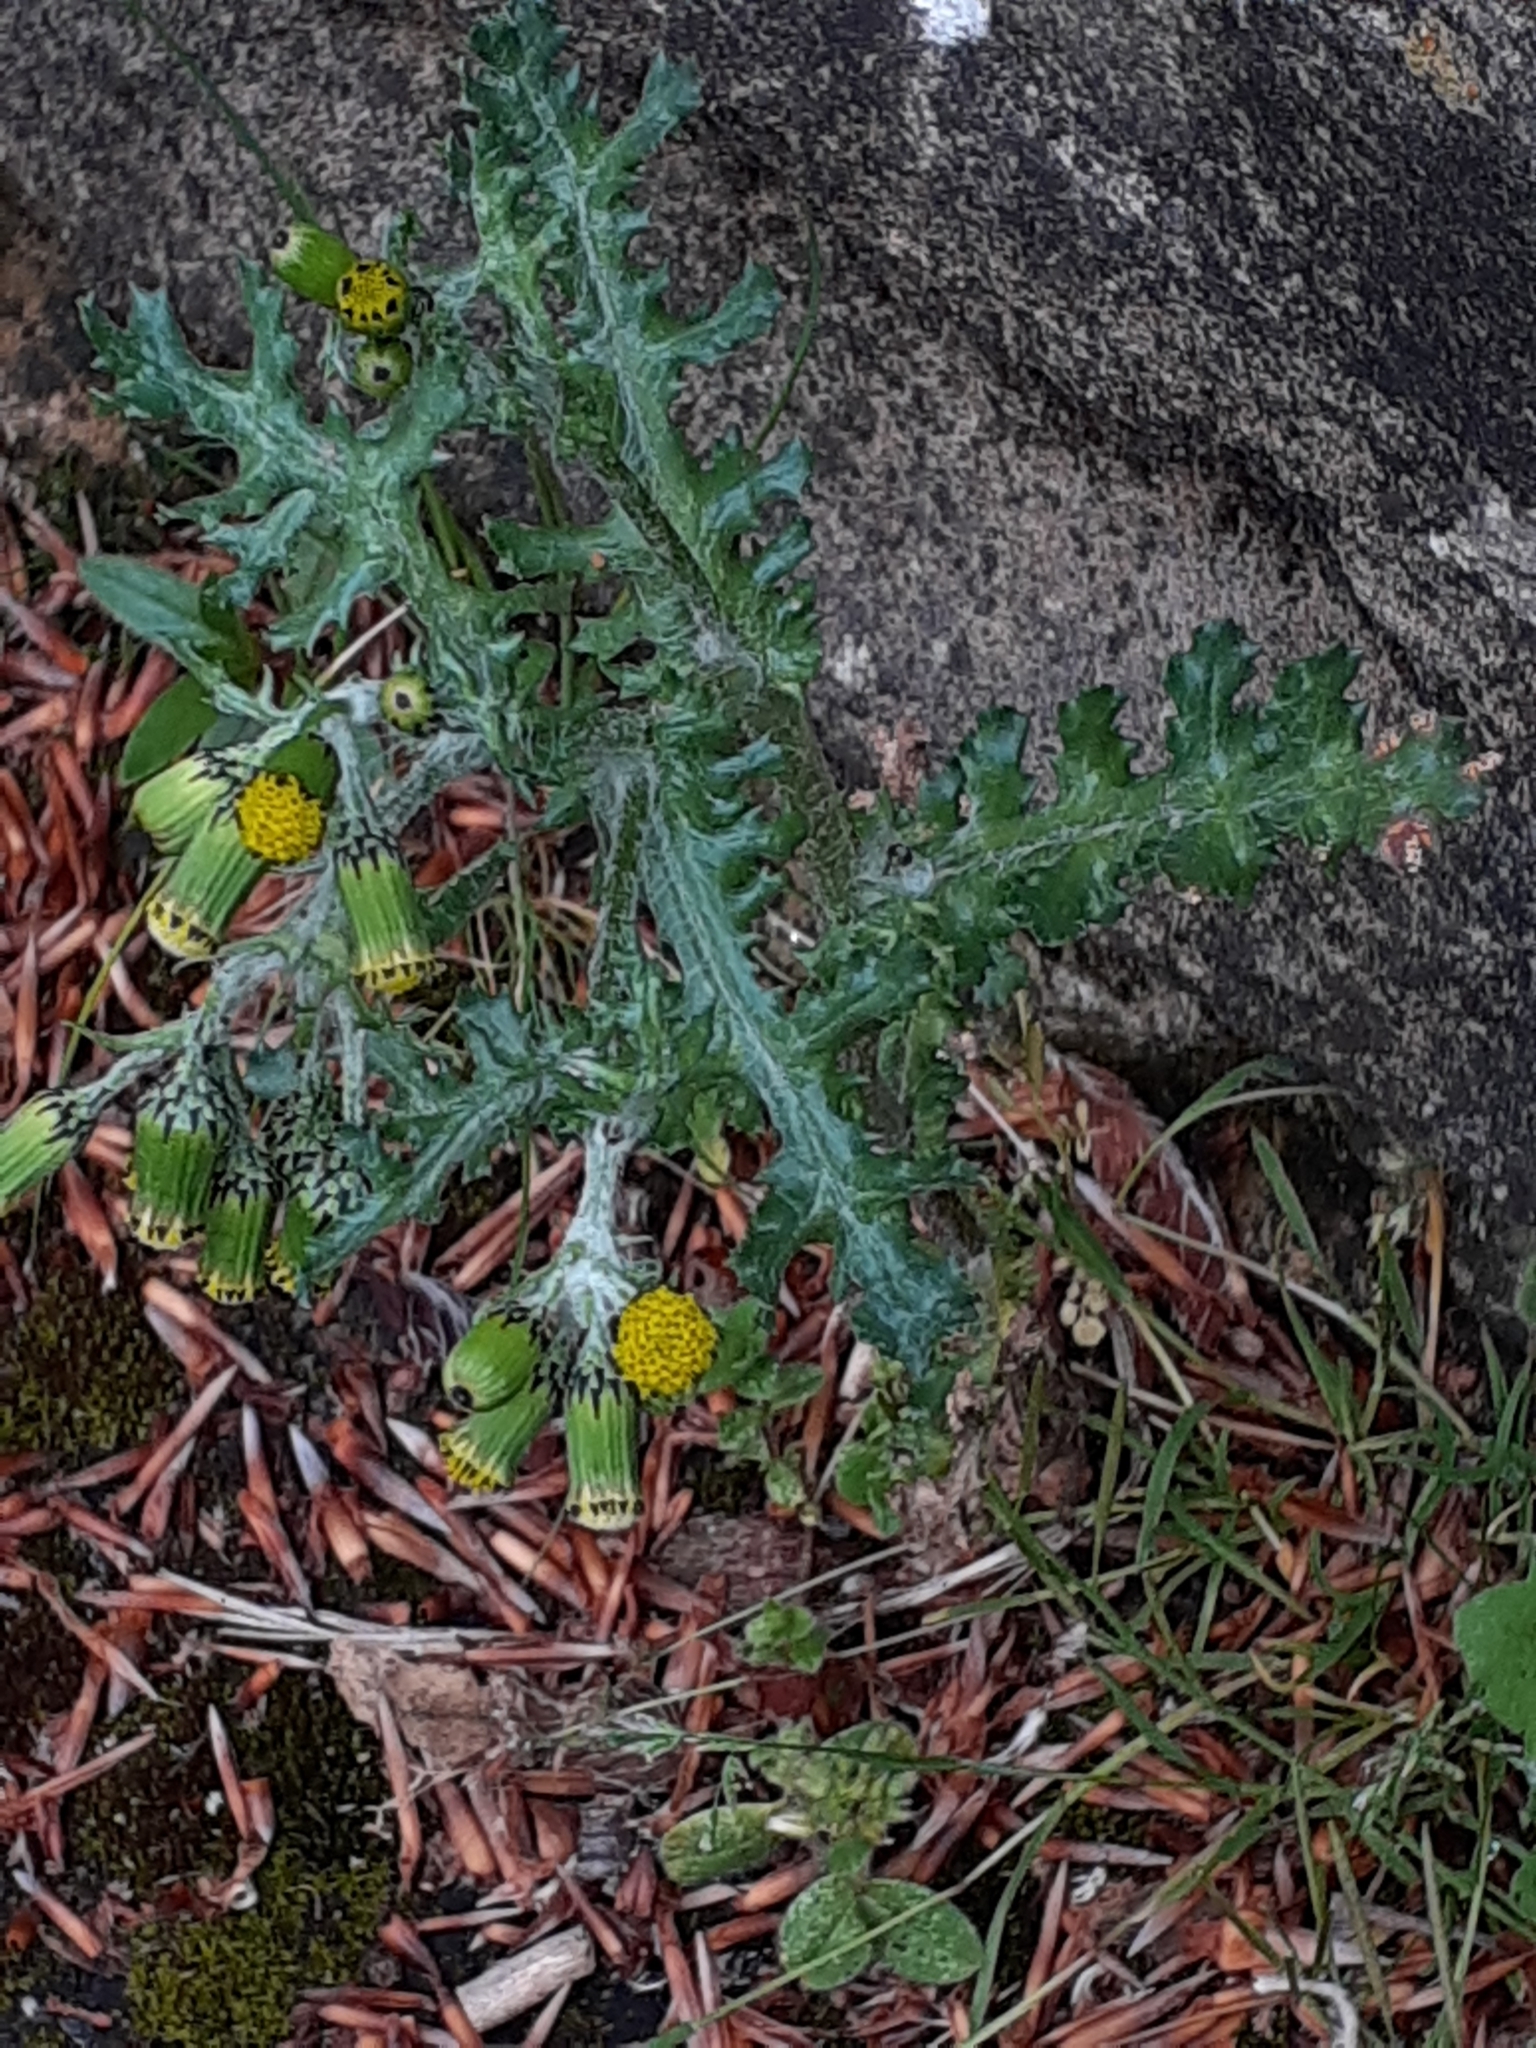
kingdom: Plantae
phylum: Tracheophyta
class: Magnoliopsida
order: Asterales
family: Asteraceae
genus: Senecio
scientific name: Senecio vulgaris
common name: Old-man-in-the-spring
